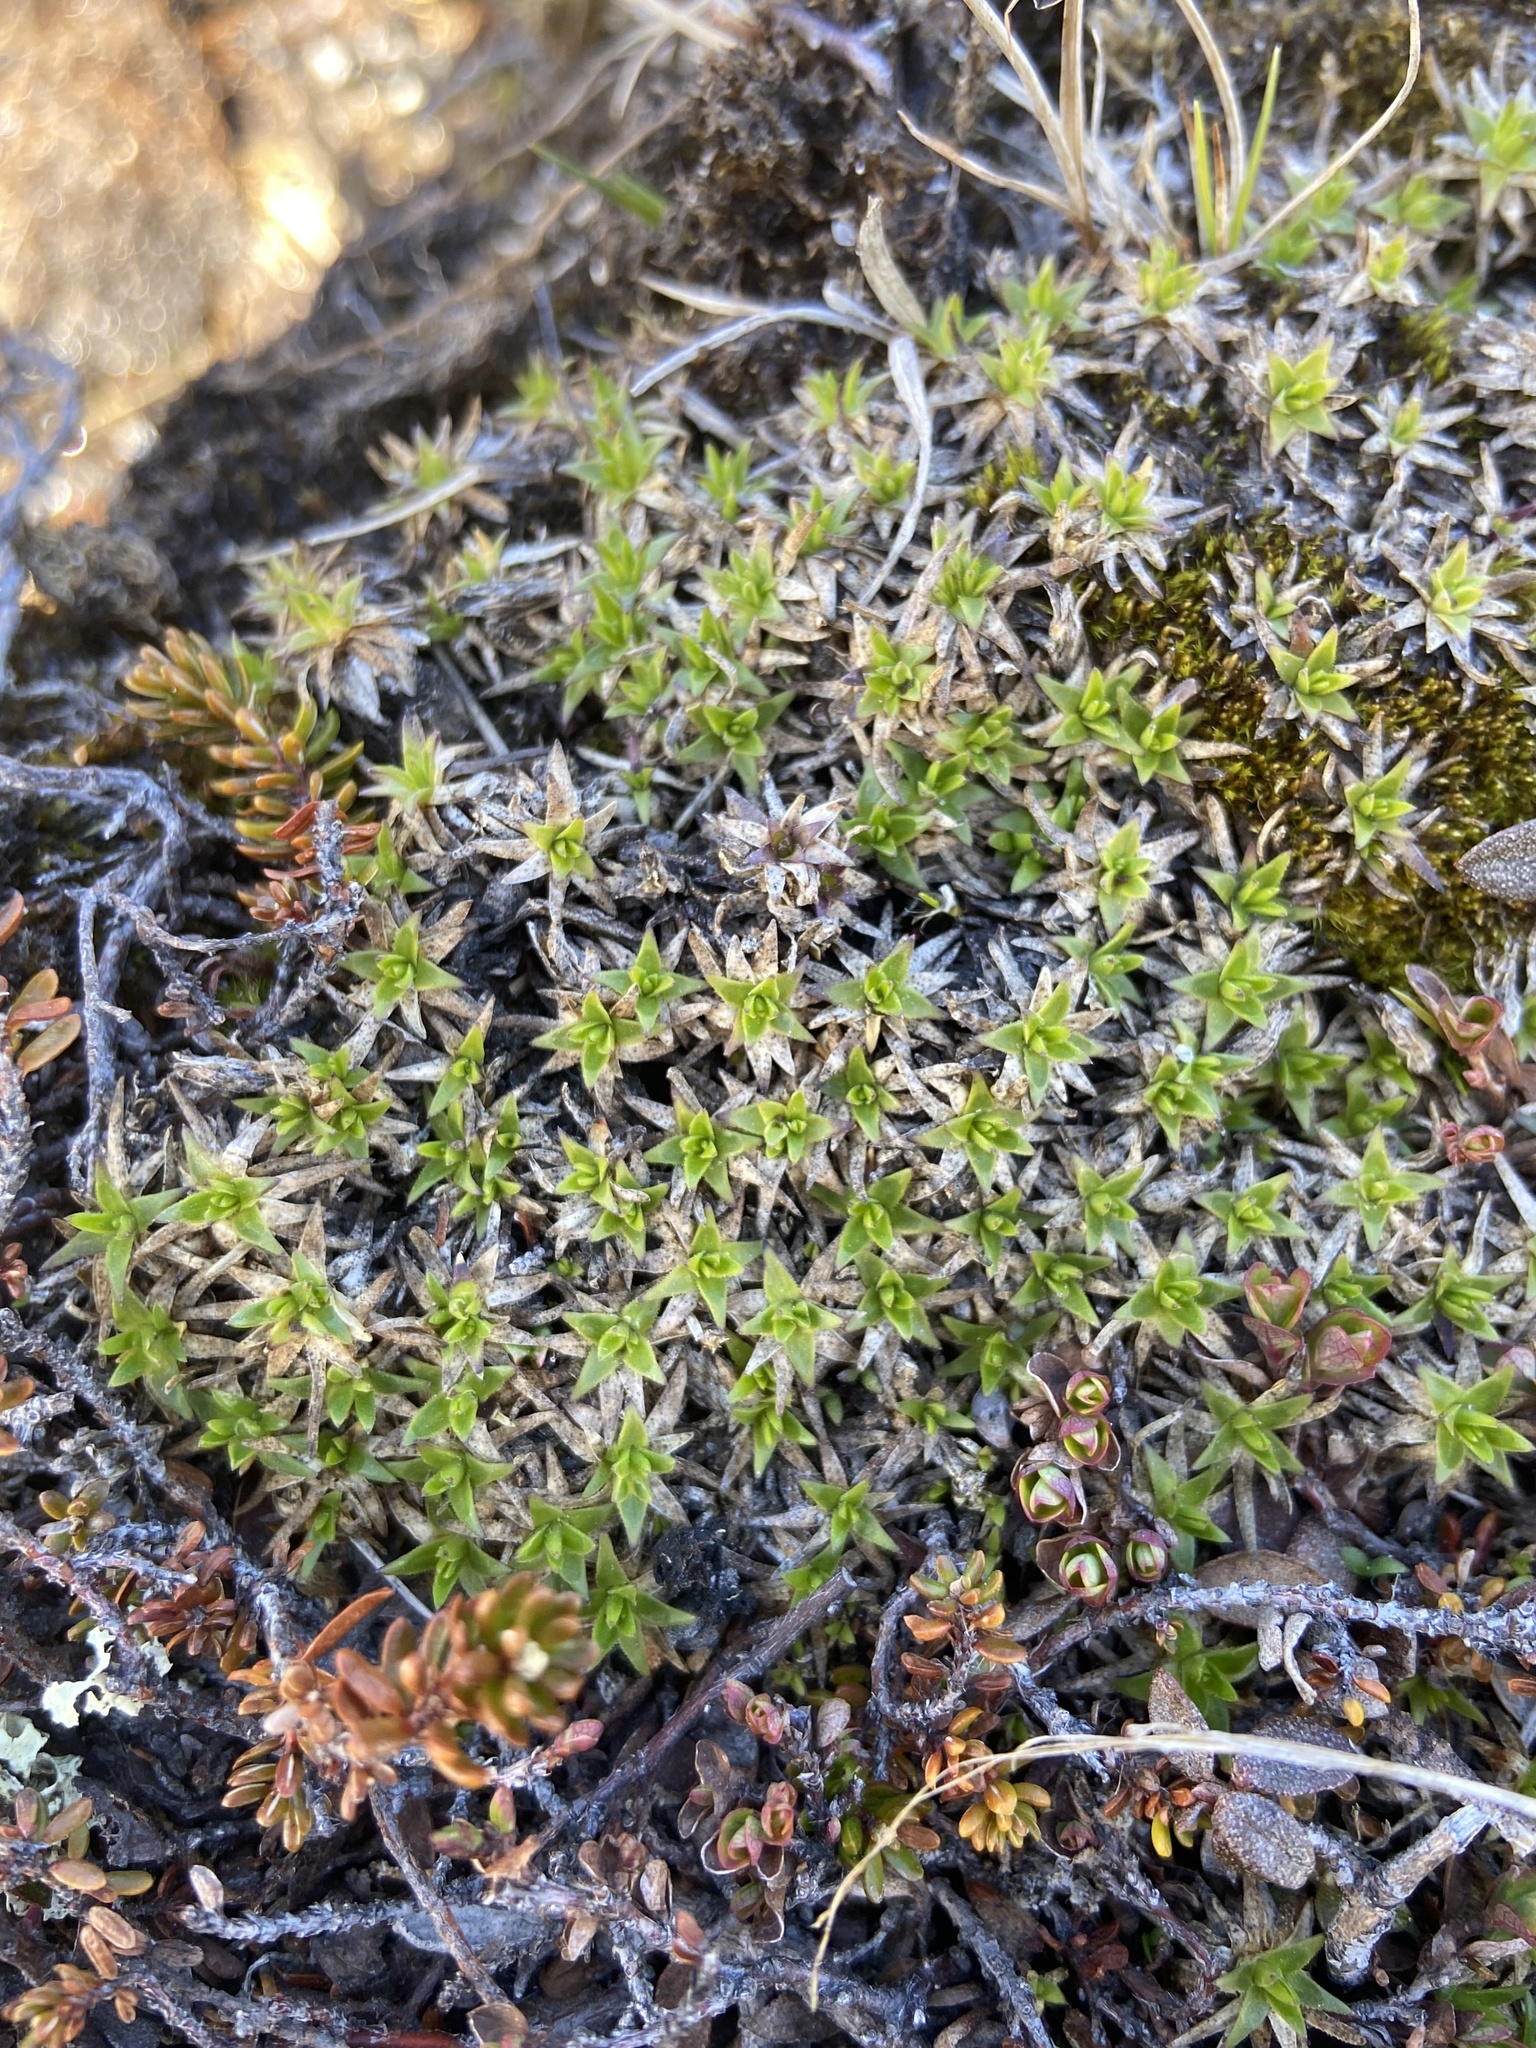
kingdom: Plantae
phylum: Tracheophyta
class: Magnoliopsida
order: Caryophyllales
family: Caryophyllaceae
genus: Silene
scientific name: Silene acaulis
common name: Moss campion
